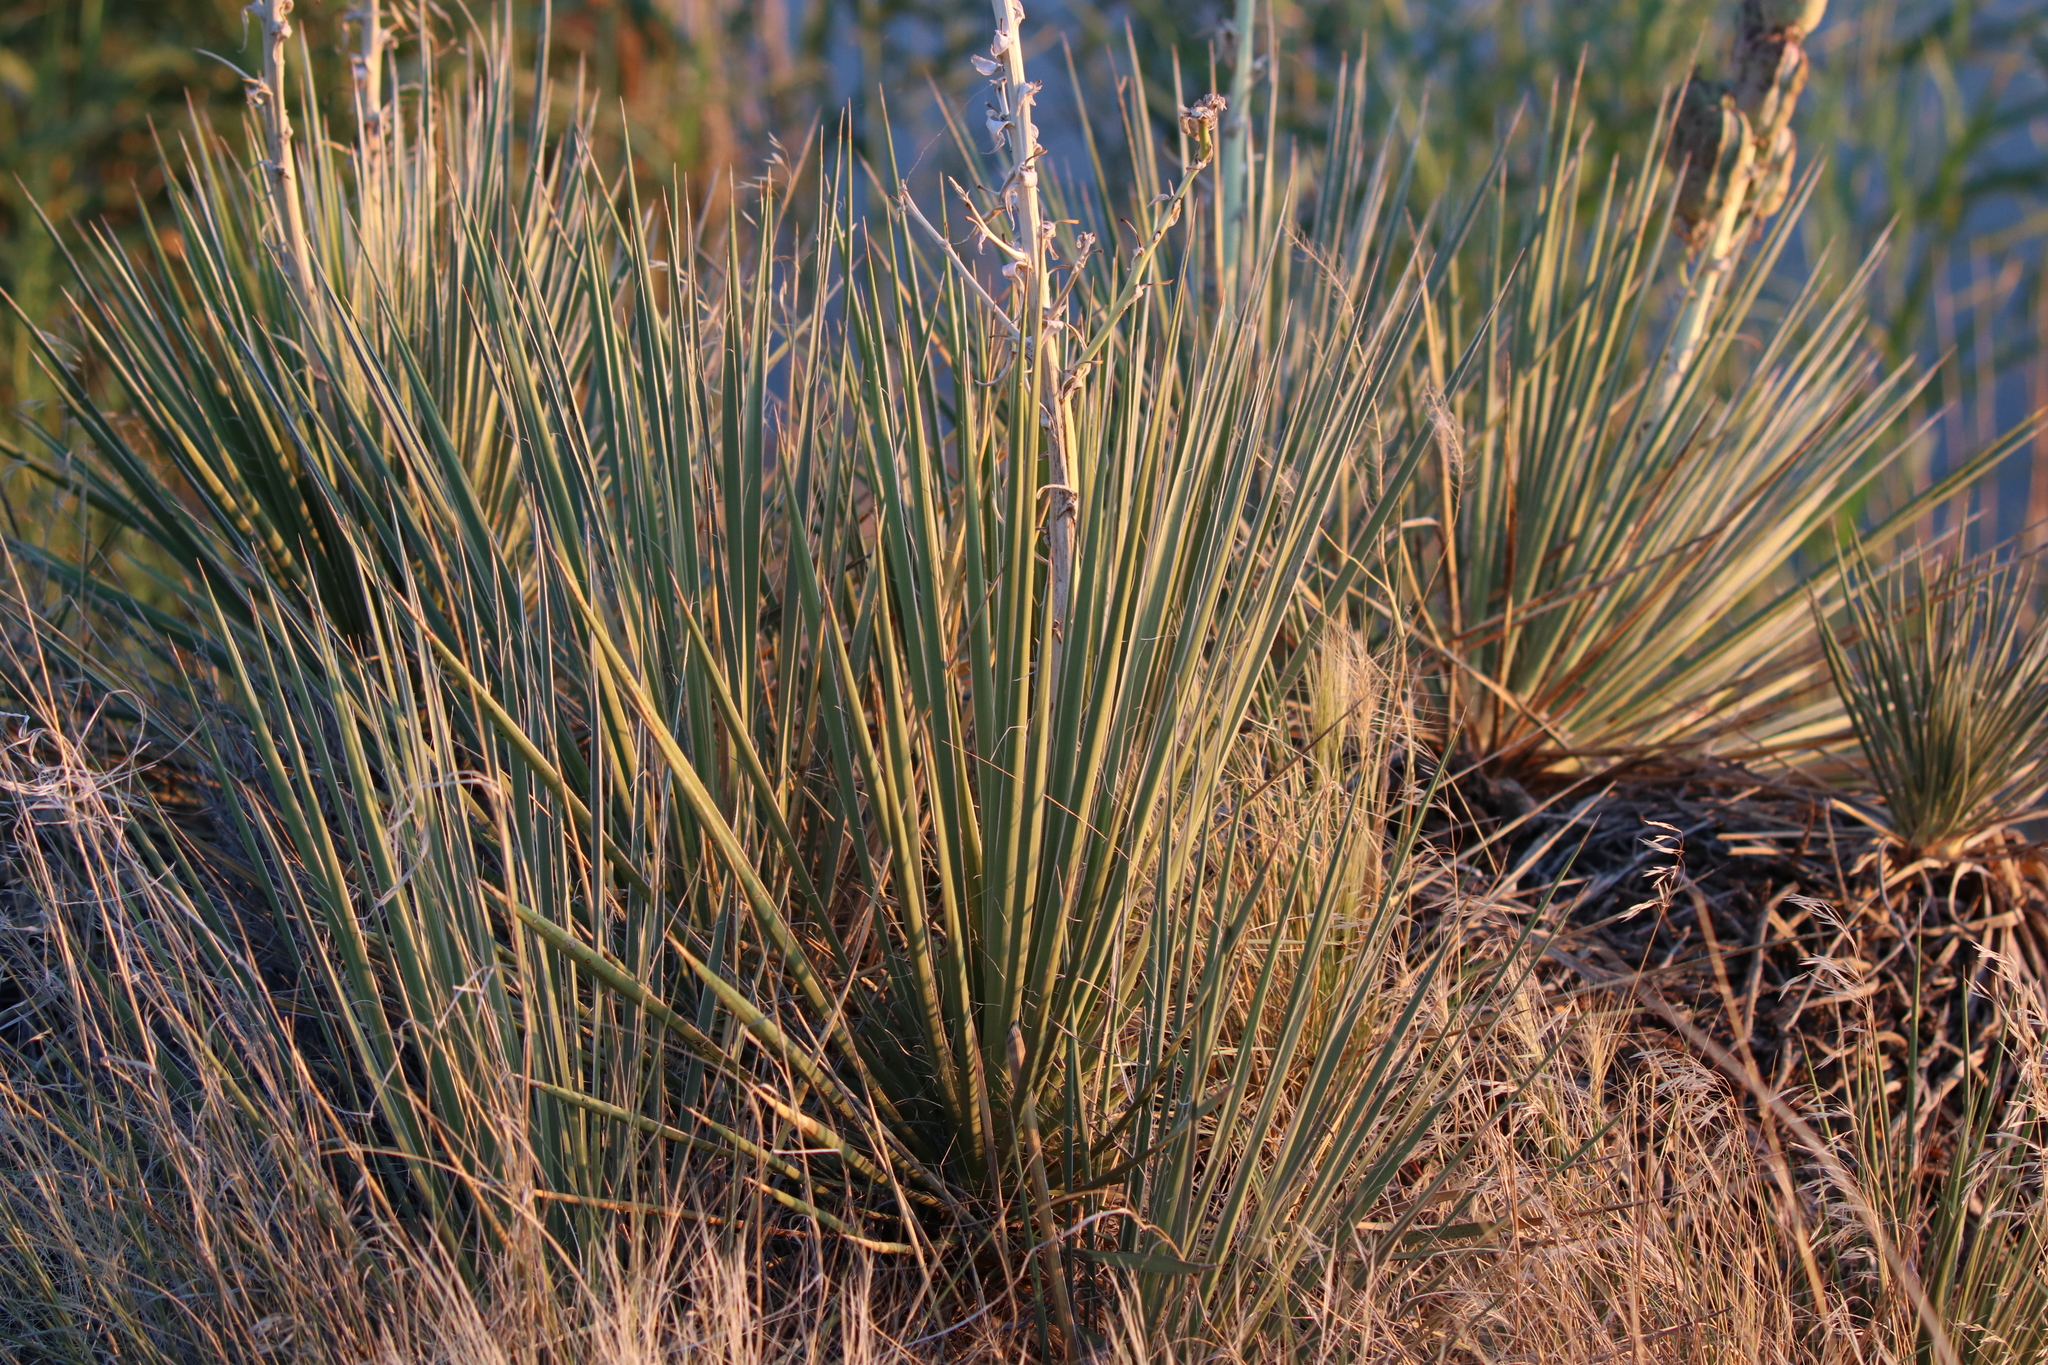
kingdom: Plantae
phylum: Tracheophyta
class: Liliopsida
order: Asparagales
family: Asparagaceae
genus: Yucca
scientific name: Yucca glauca
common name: Great plains yucca
